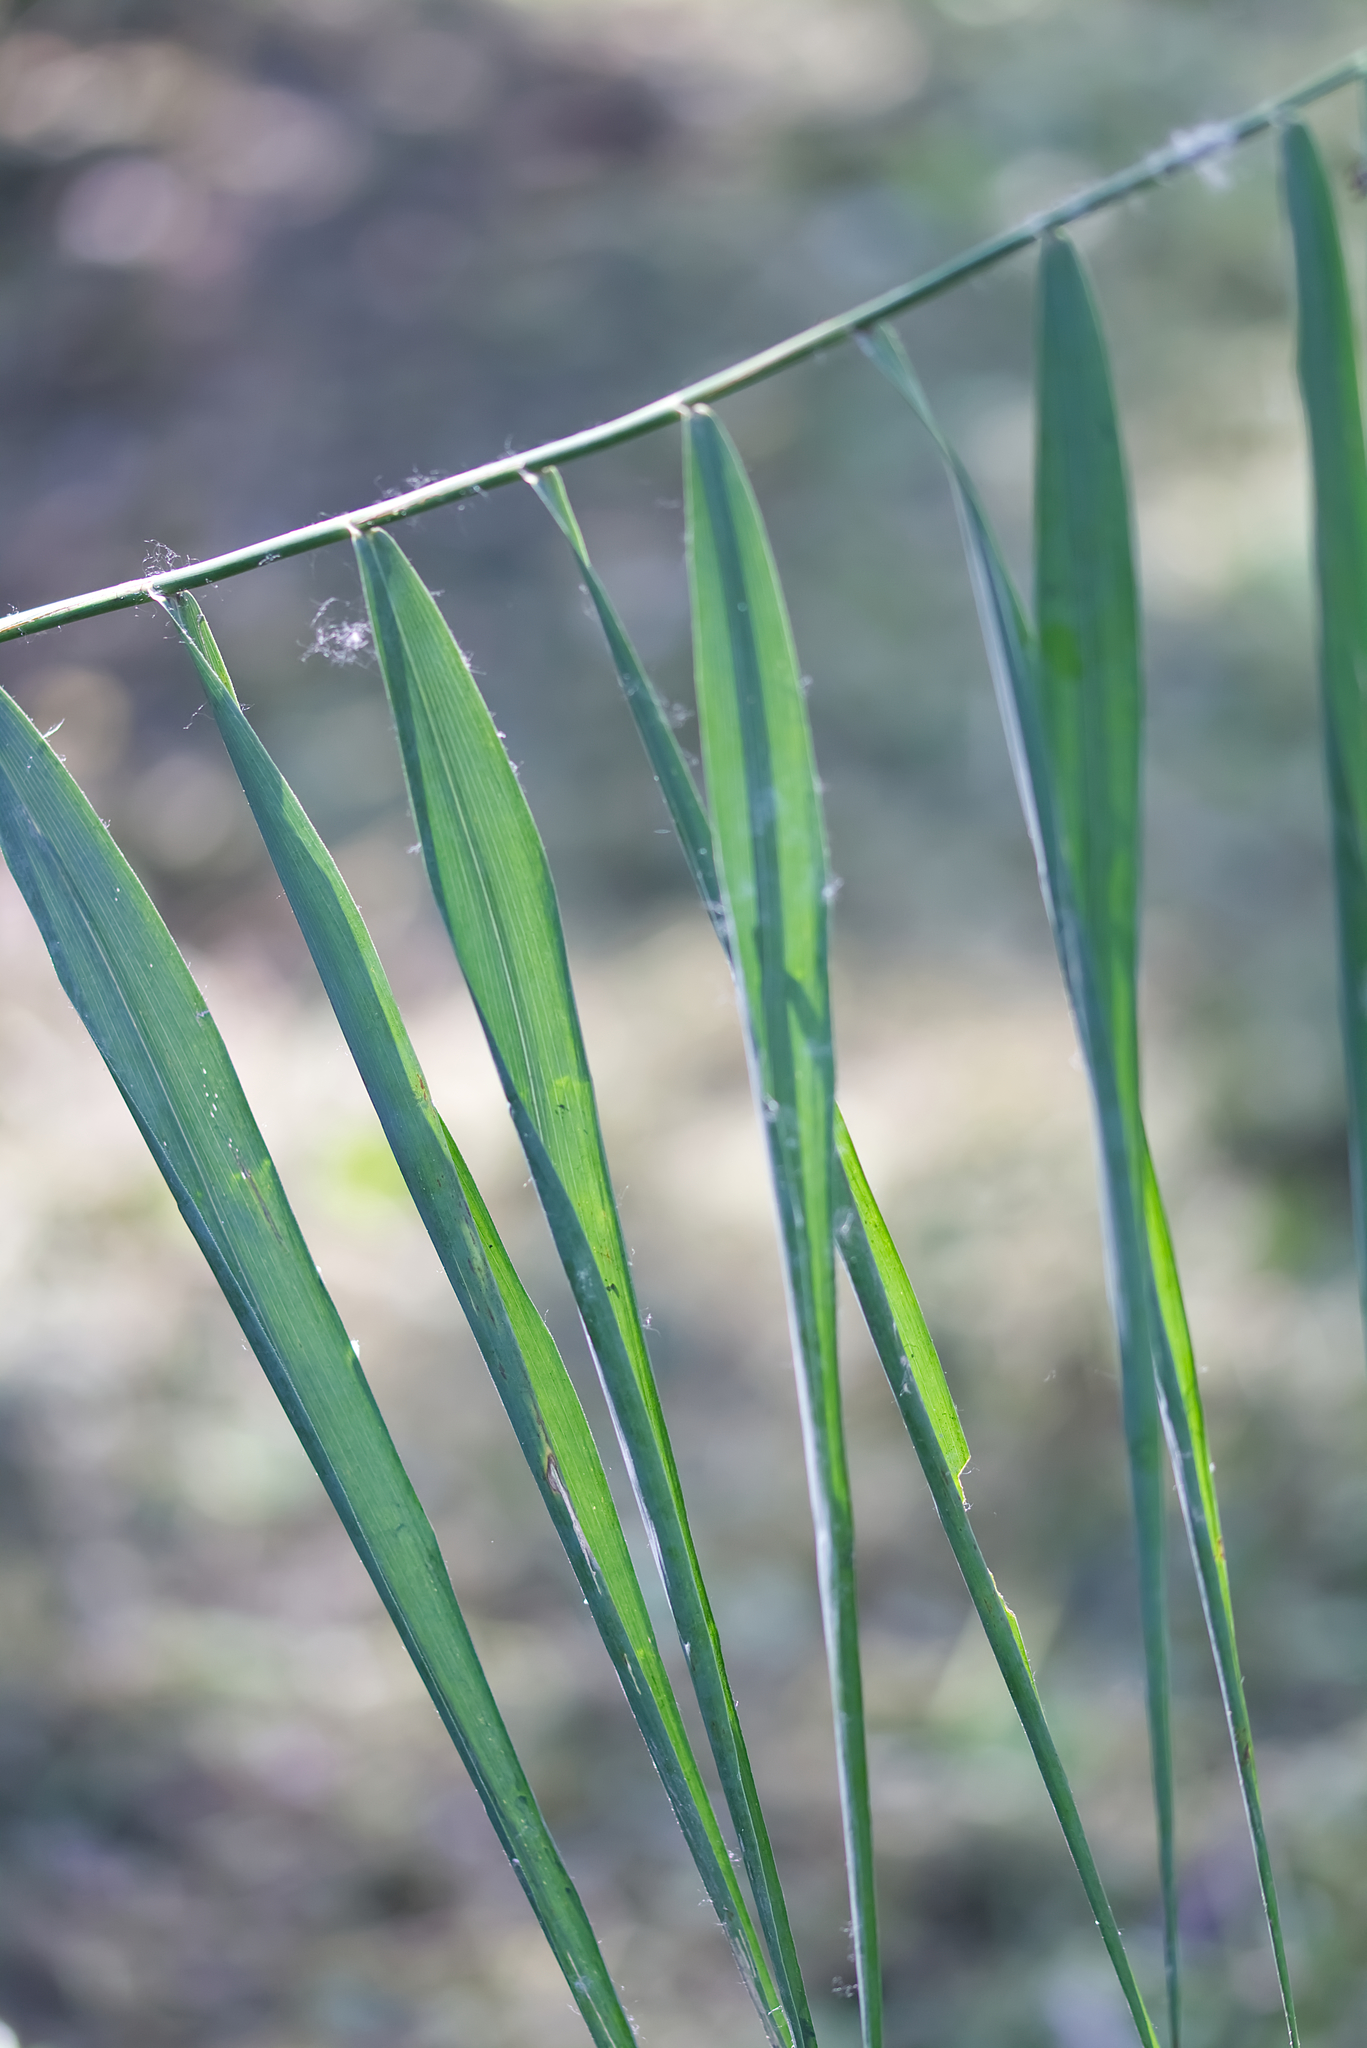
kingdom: Plantae
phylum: Tracheophyta
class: Liliopsida
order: Poales
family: Poaceae
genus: Phragmites
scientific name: Phragmites australis
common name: Common reed
